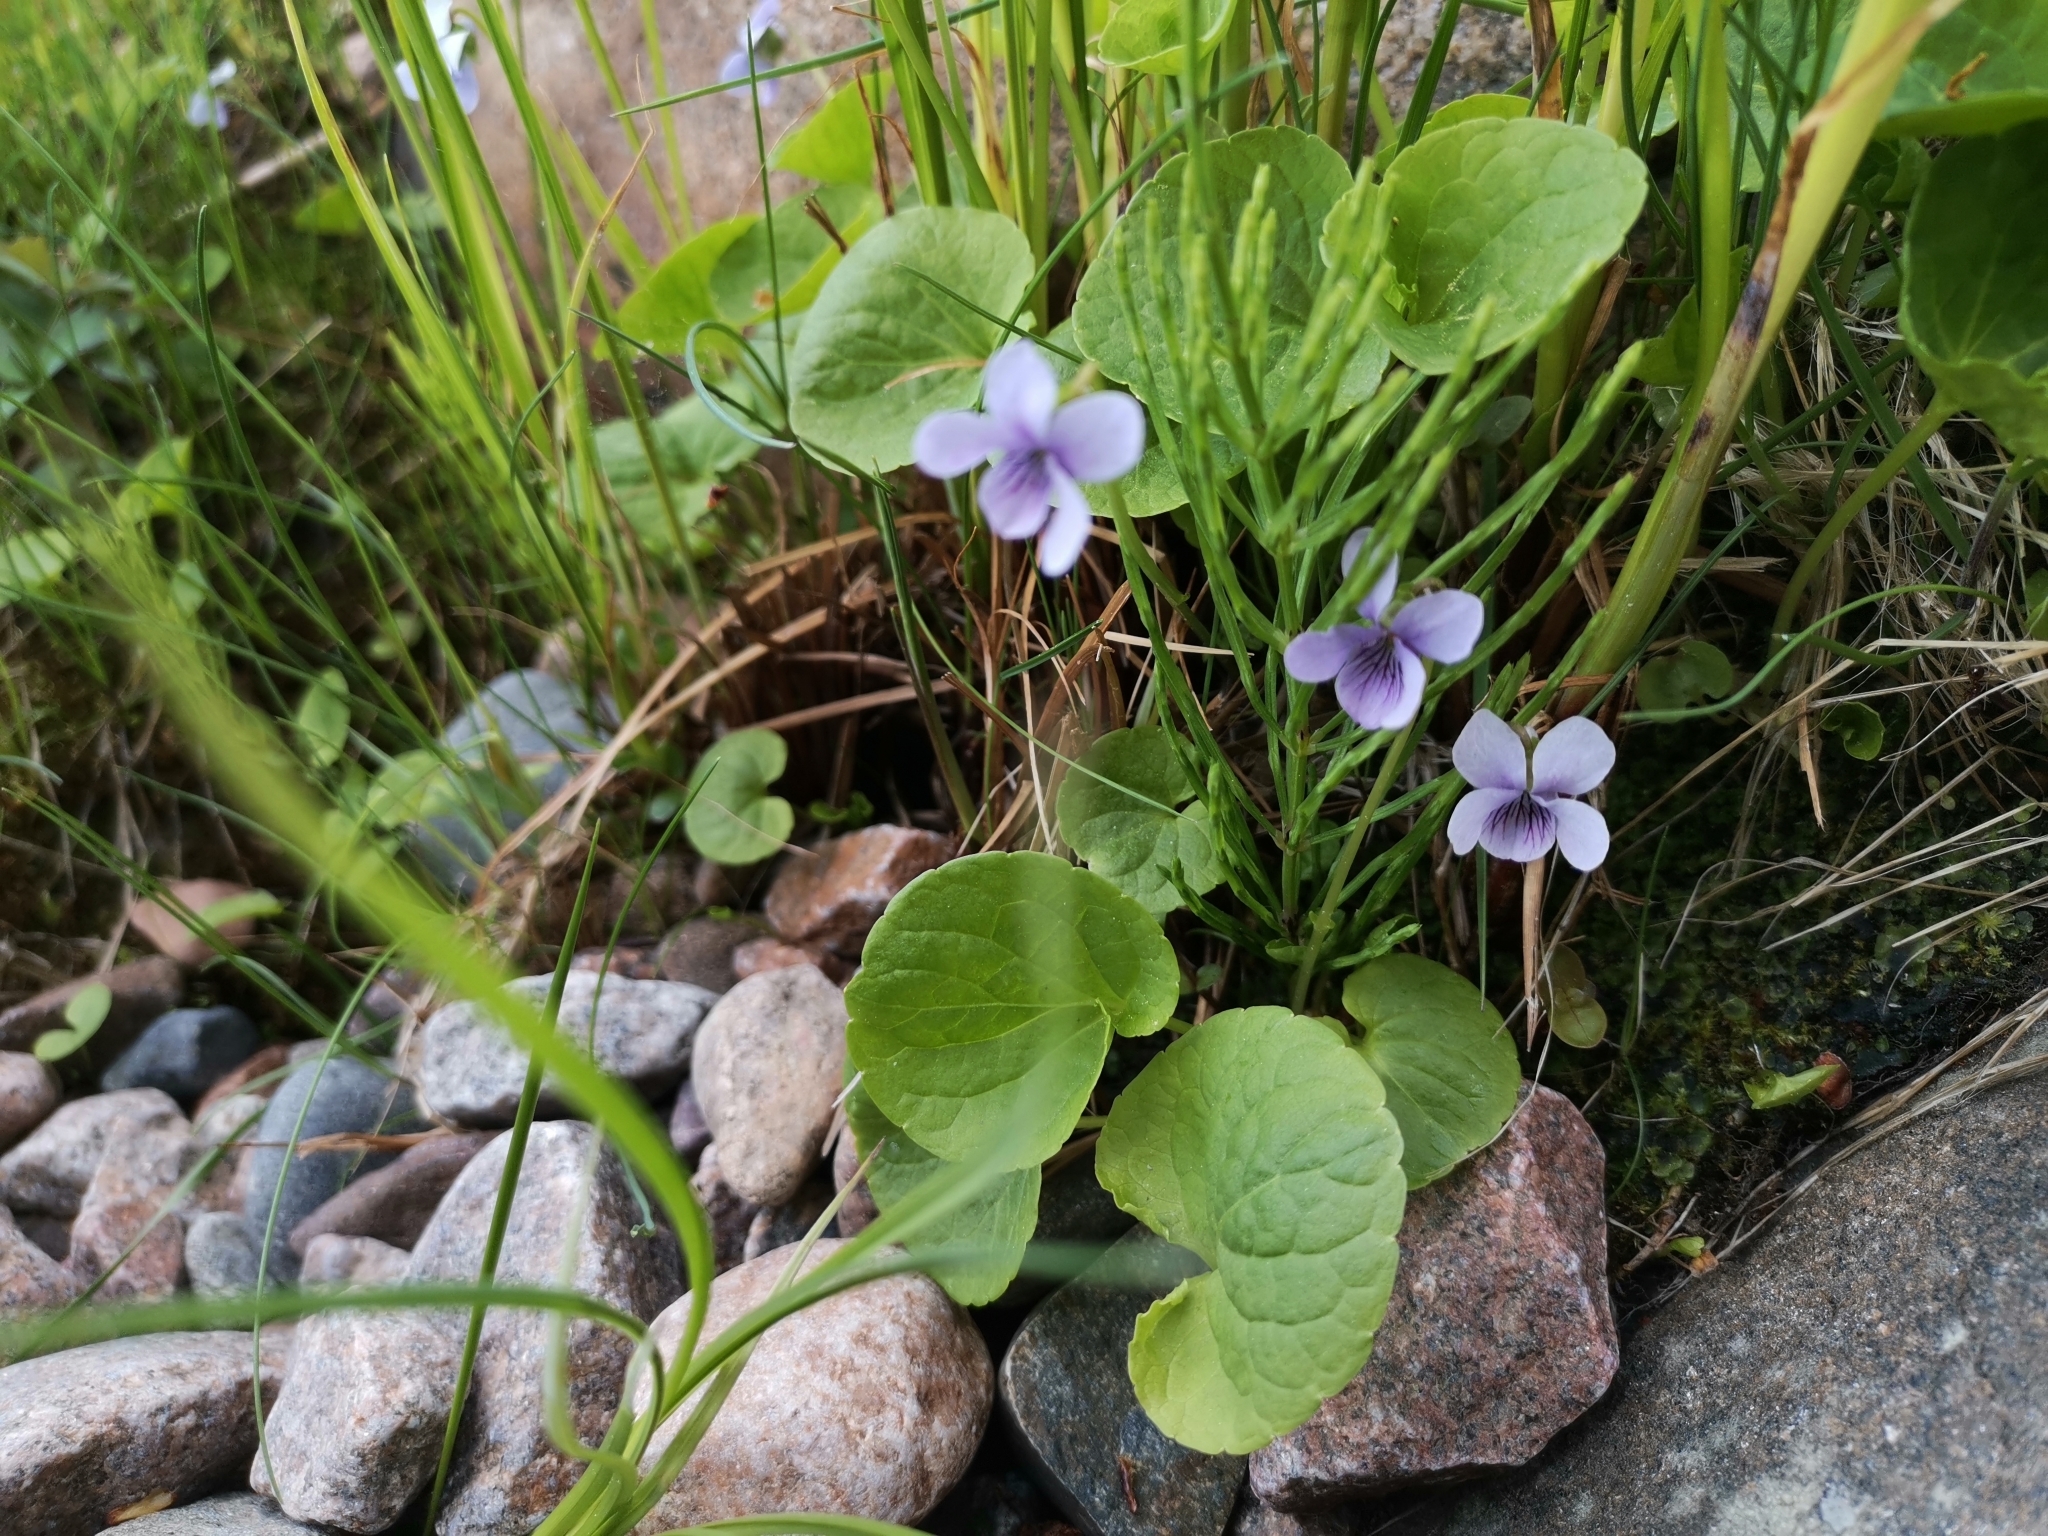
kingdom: Plantae
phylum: Tracheophyta
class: Magnoliopsida
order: Malpighiales
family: Violaceae
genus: Viola
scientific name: Viola palustris
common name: Marsh violet
